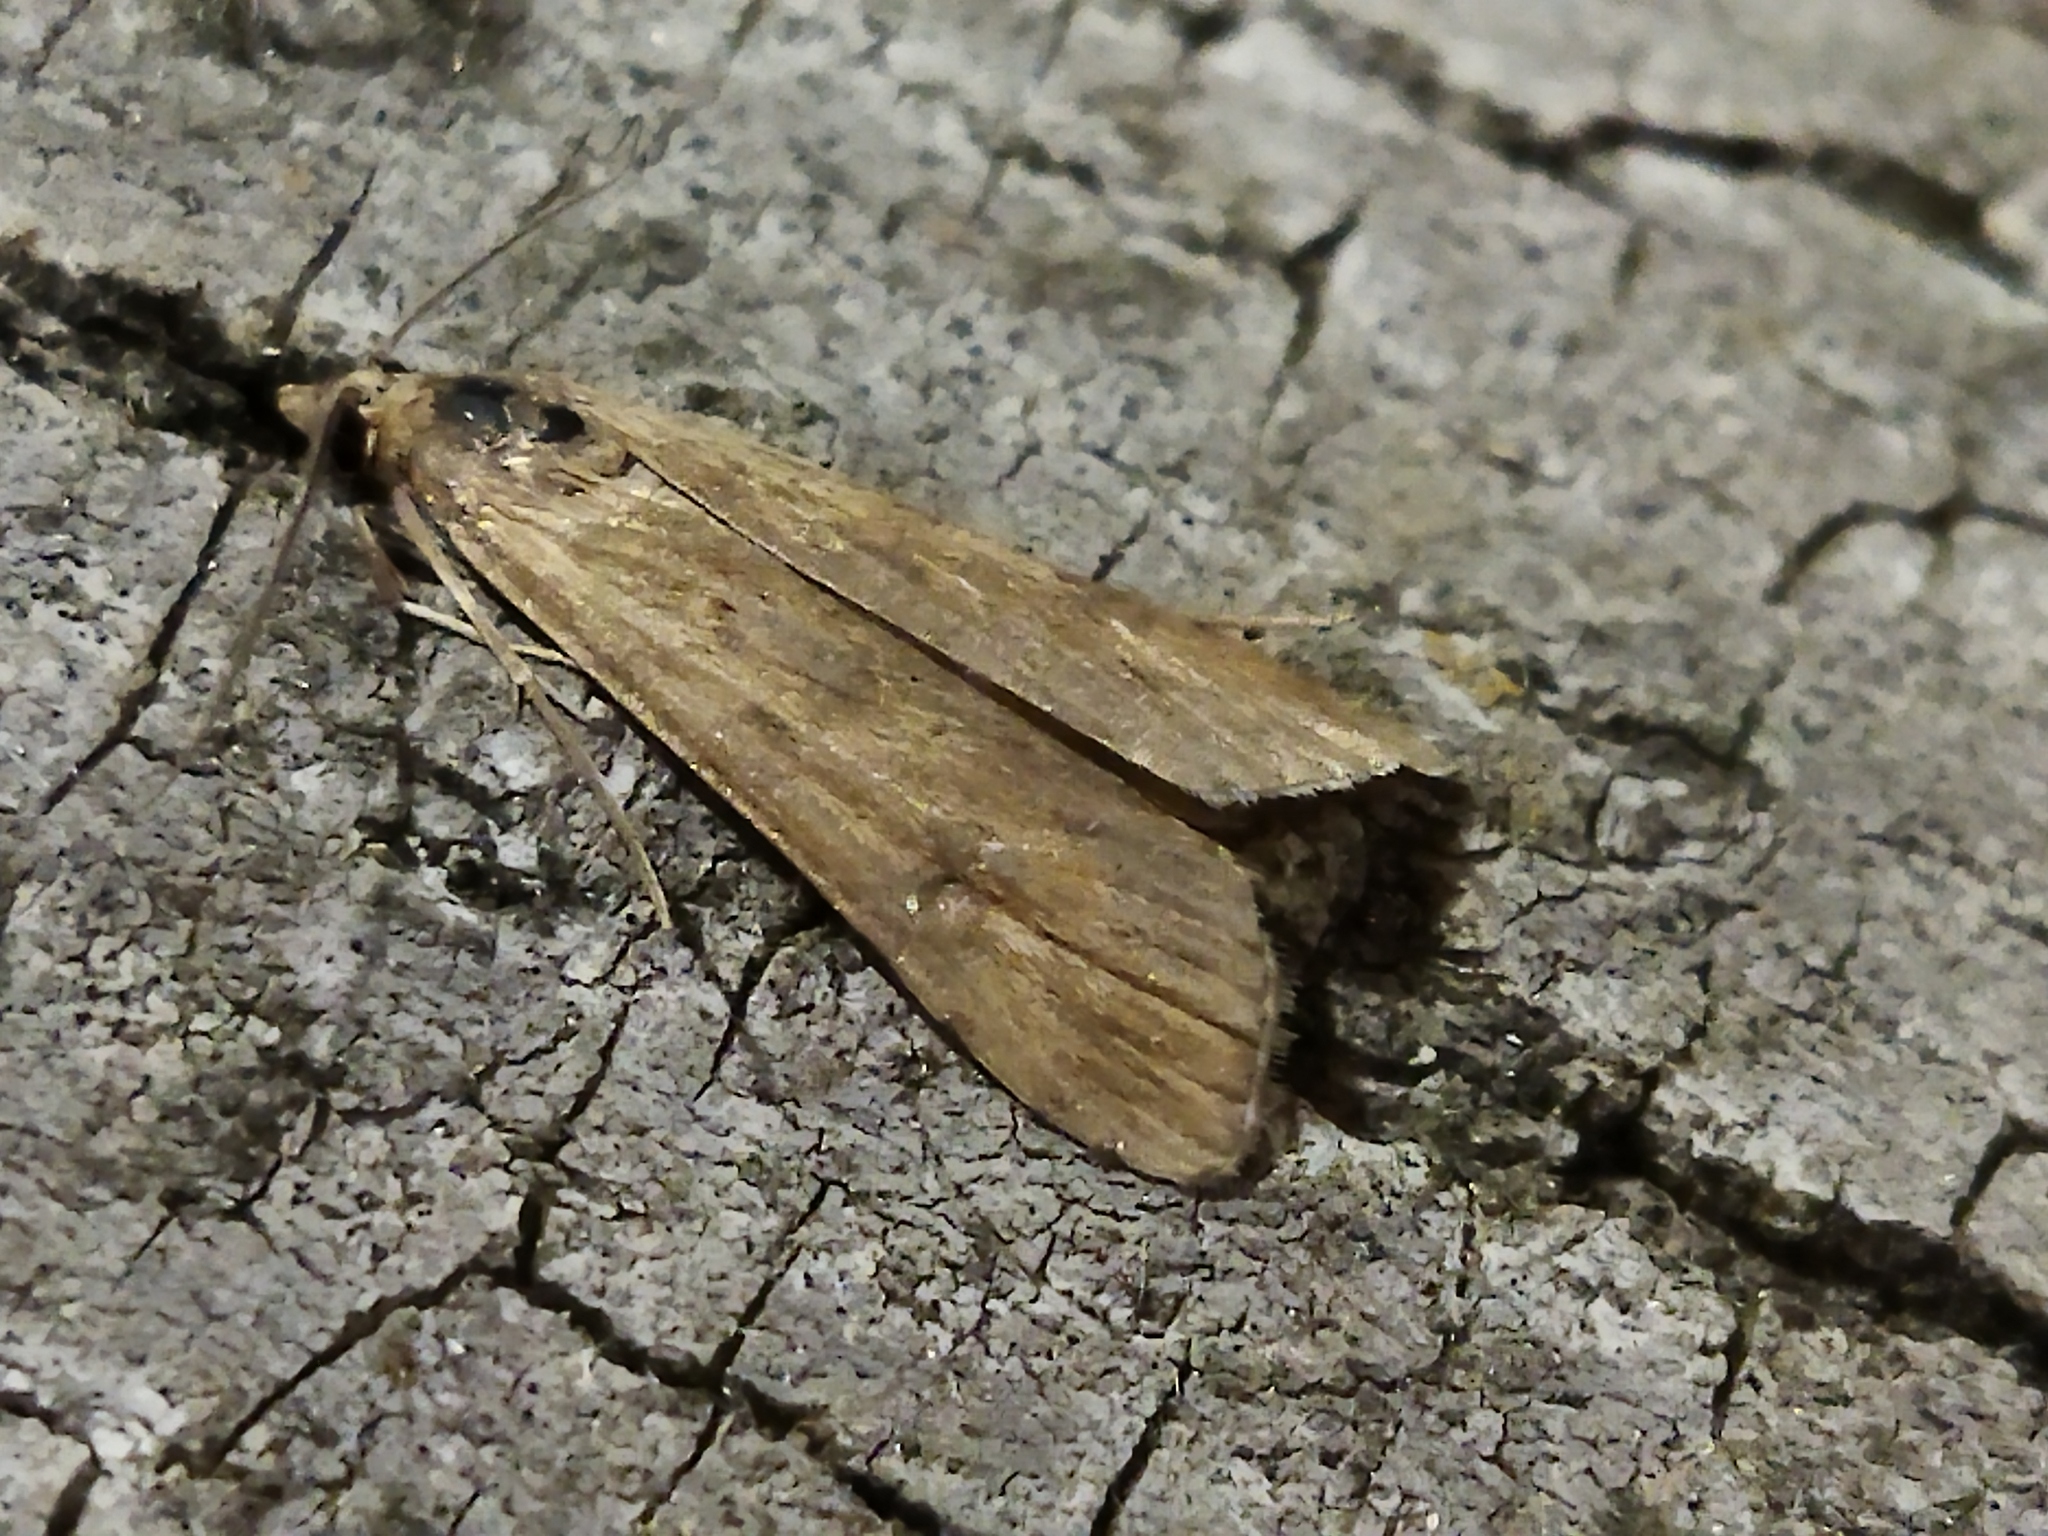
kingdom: Animalia
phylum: Arthropoda
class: Insecta
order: Lepidoptera
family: Crambidae
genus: Nomophila
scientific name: Nomophila noctuella
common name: Rush veneer
